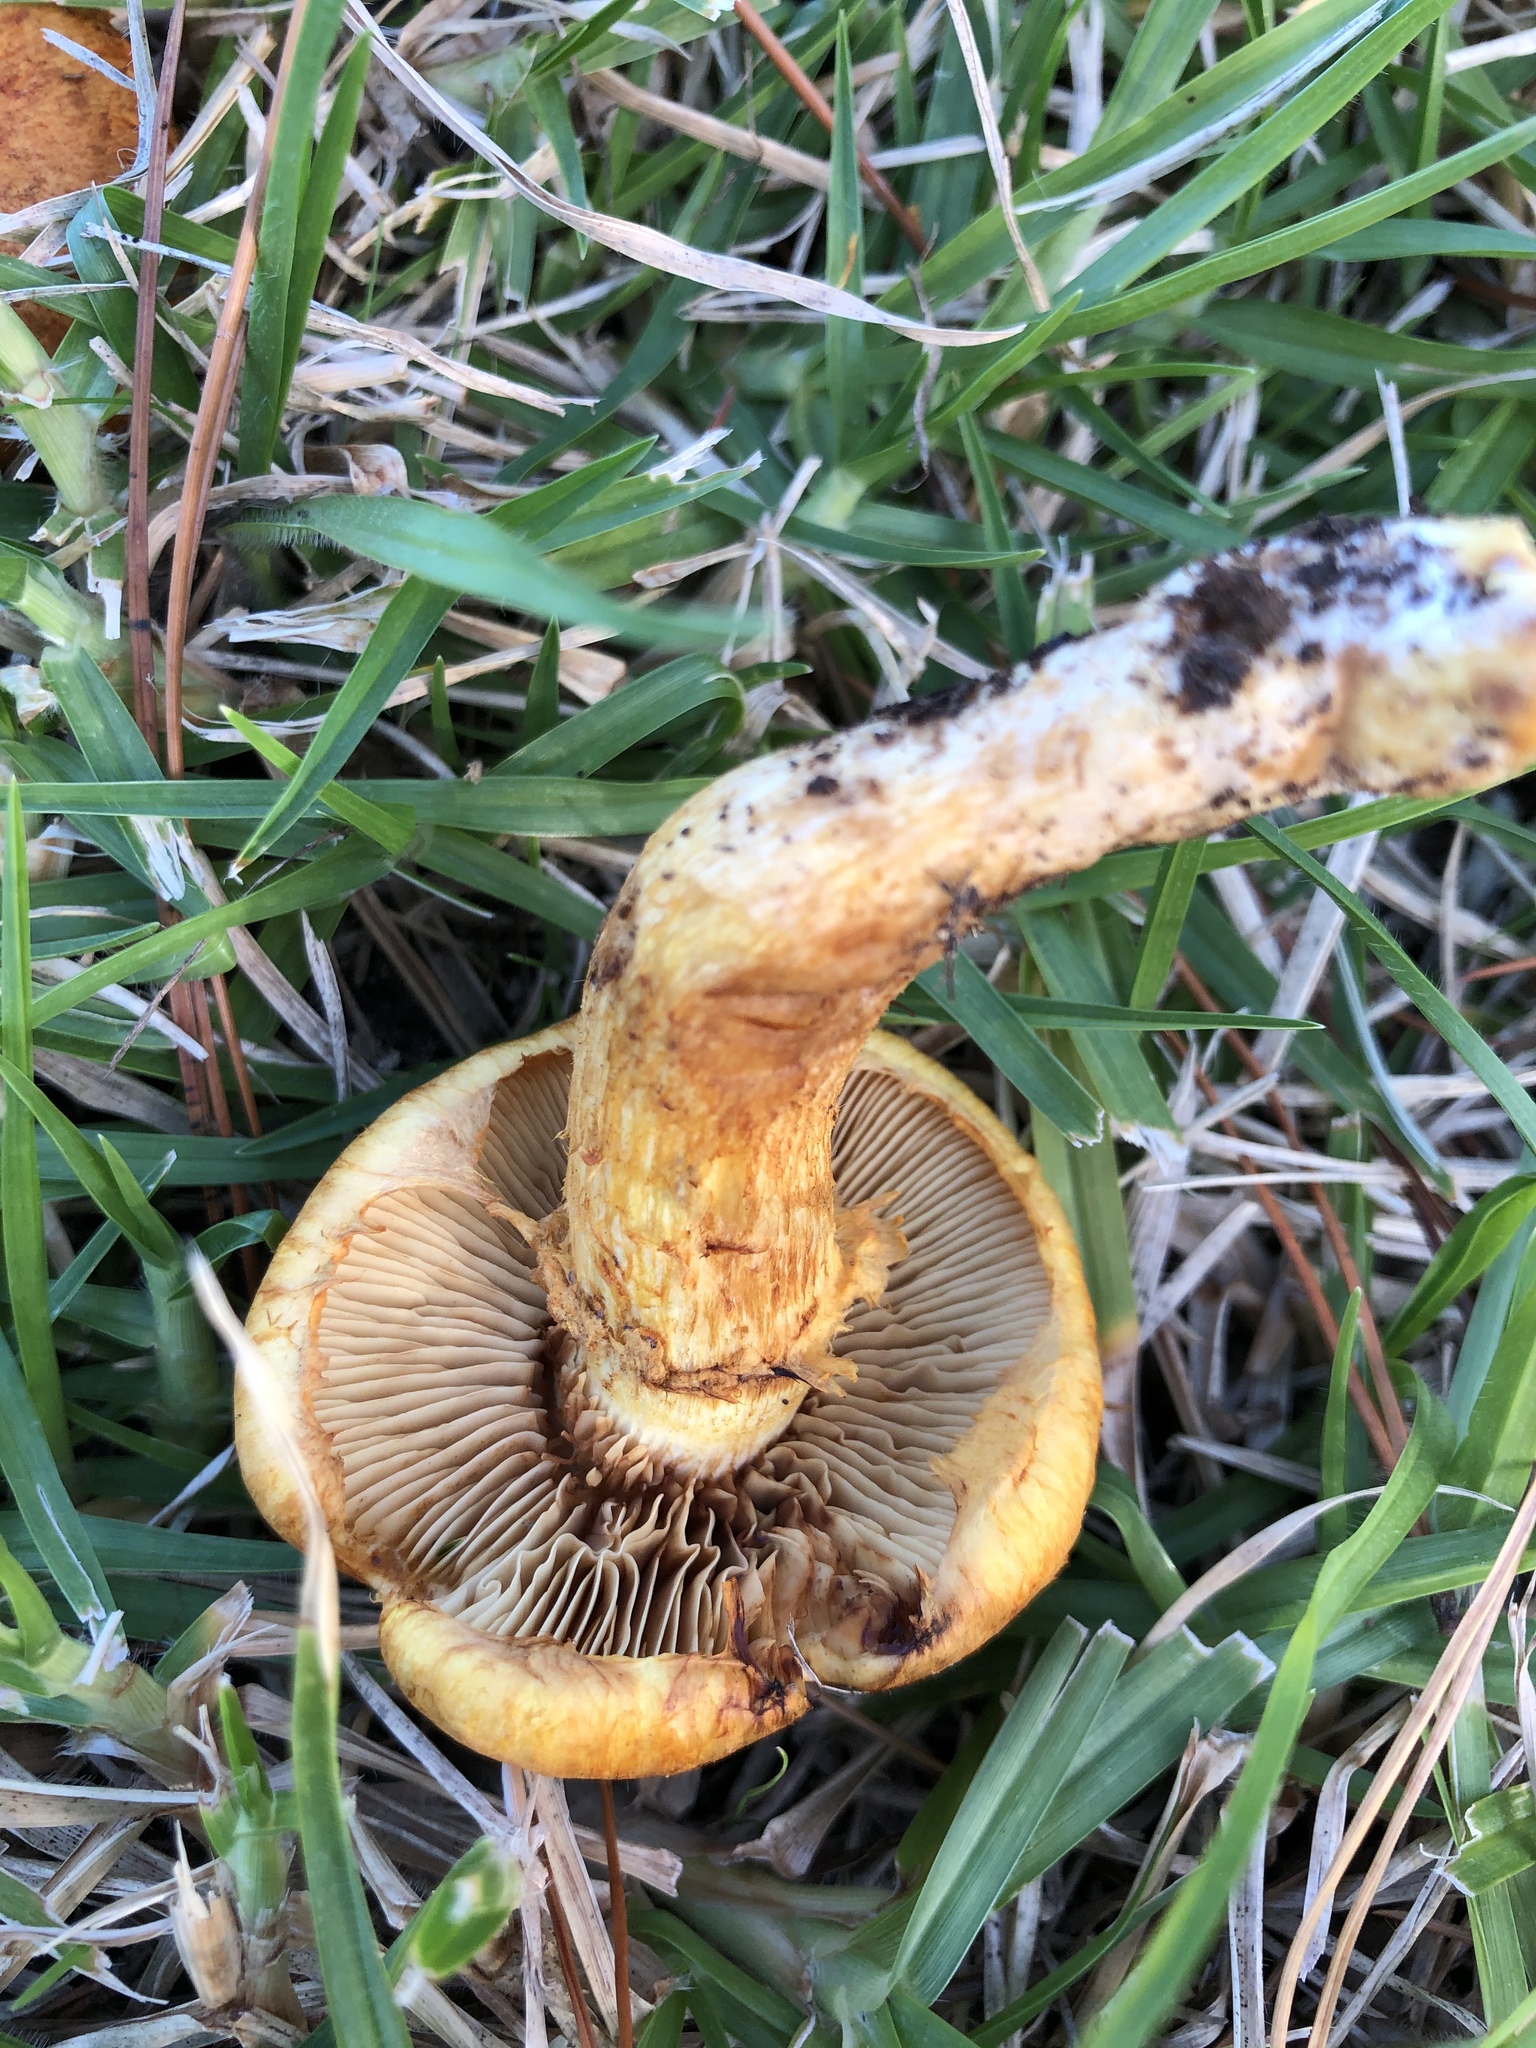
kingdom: Fungi
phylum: Basidiomycota
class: Agaricomycetes
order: Agaricales
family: Hymenogastraceae
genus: Gymnopilus
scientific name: Gymnopilus junonius
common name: Spectacular rustgill
